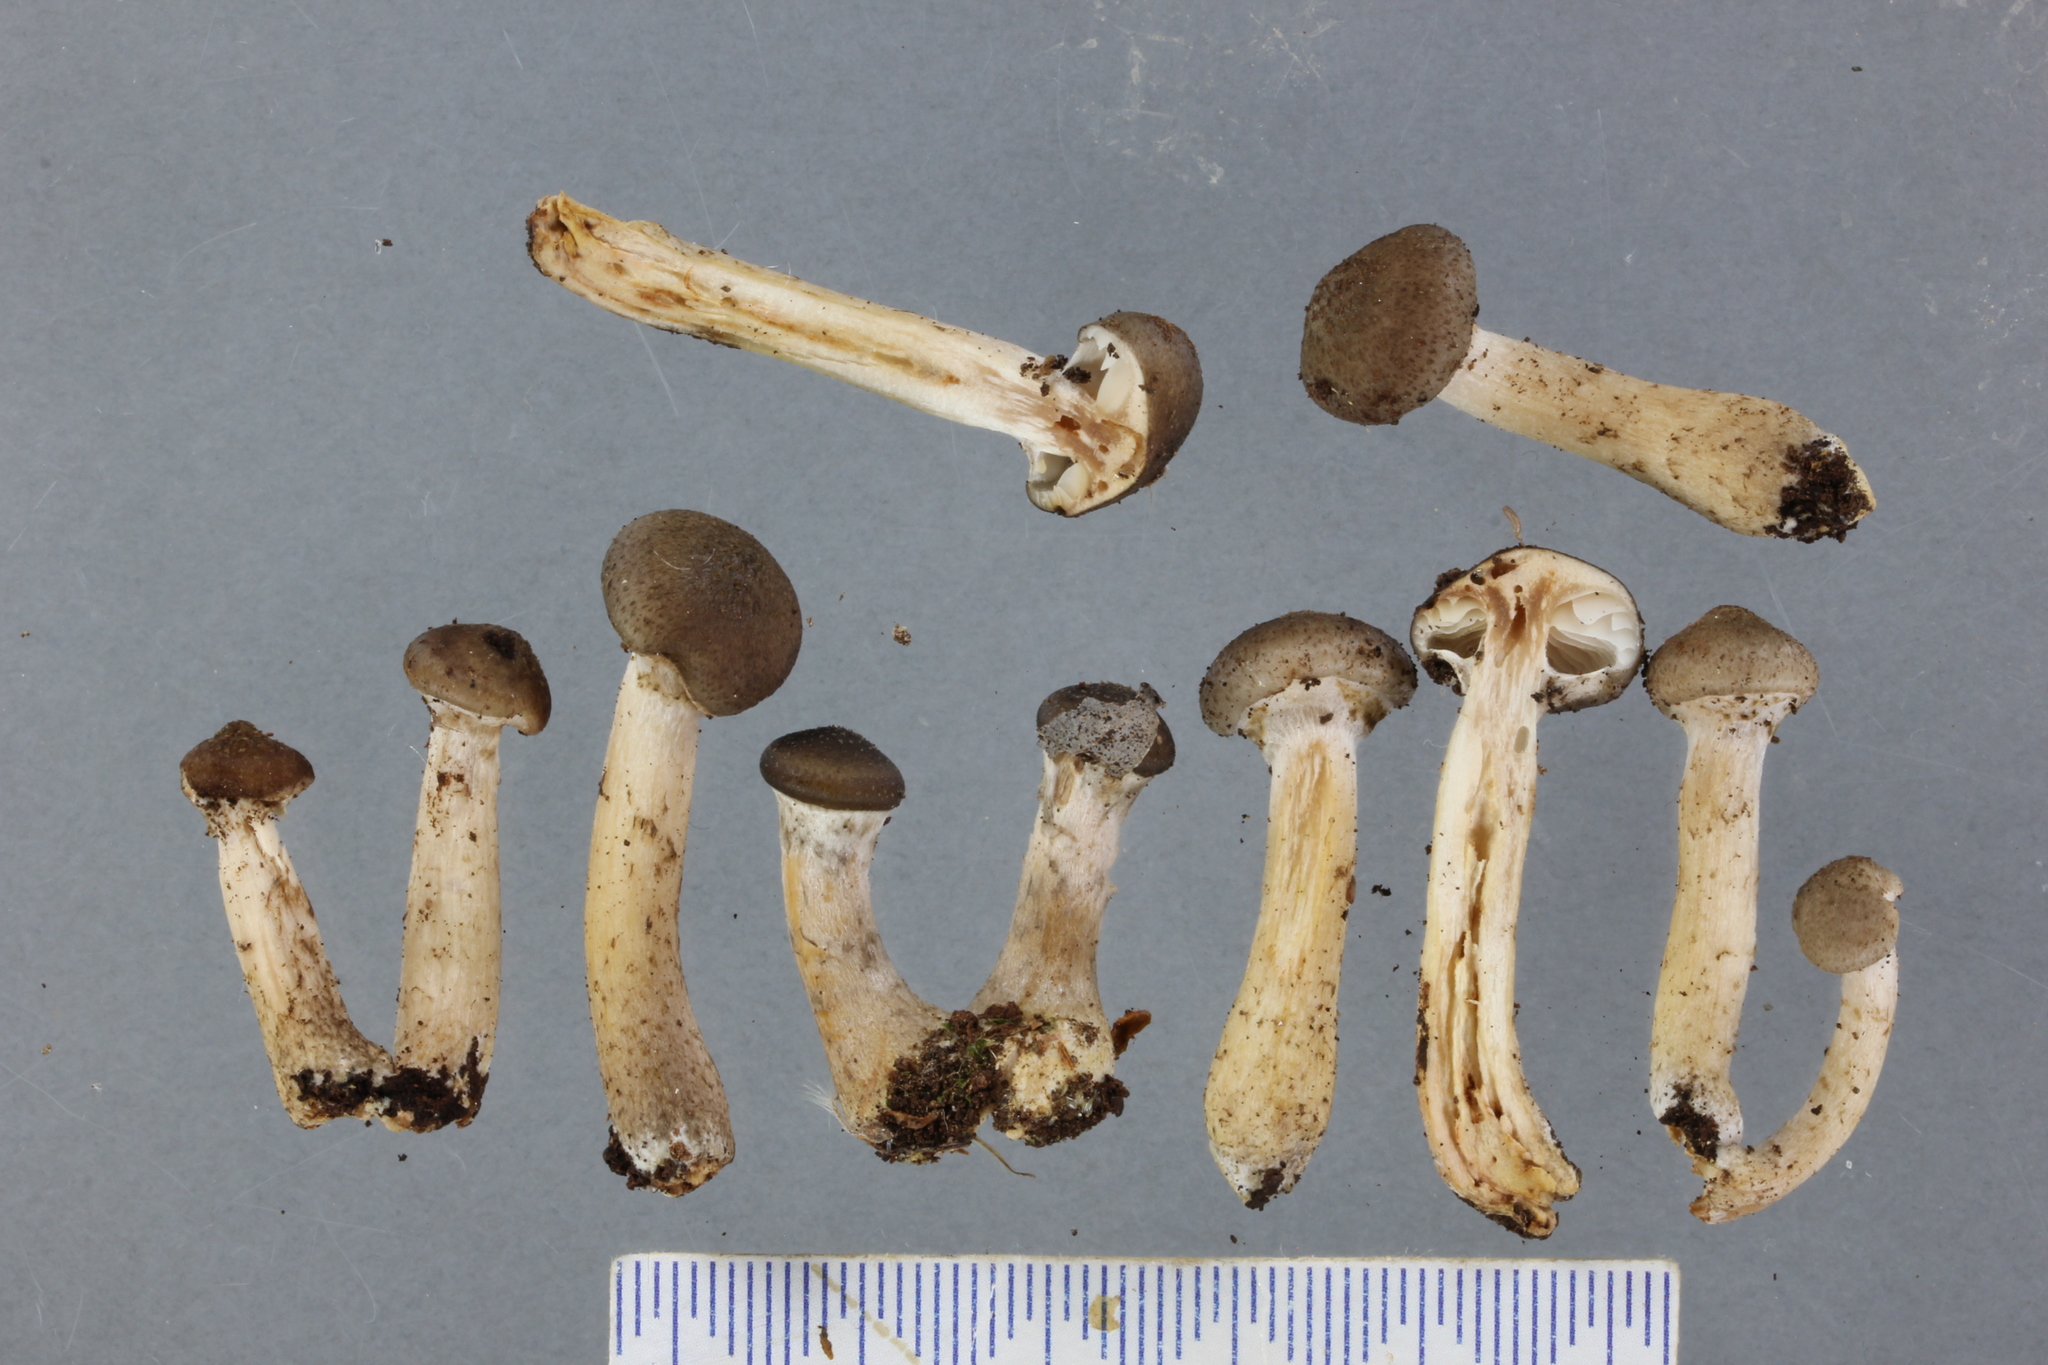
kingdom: Fungi
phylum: Basidiomycota
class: Agaricomycetes
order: Agaricales
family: Physalacriaceae
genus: Armillaria
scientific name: Armillaria novae-zelandiae
